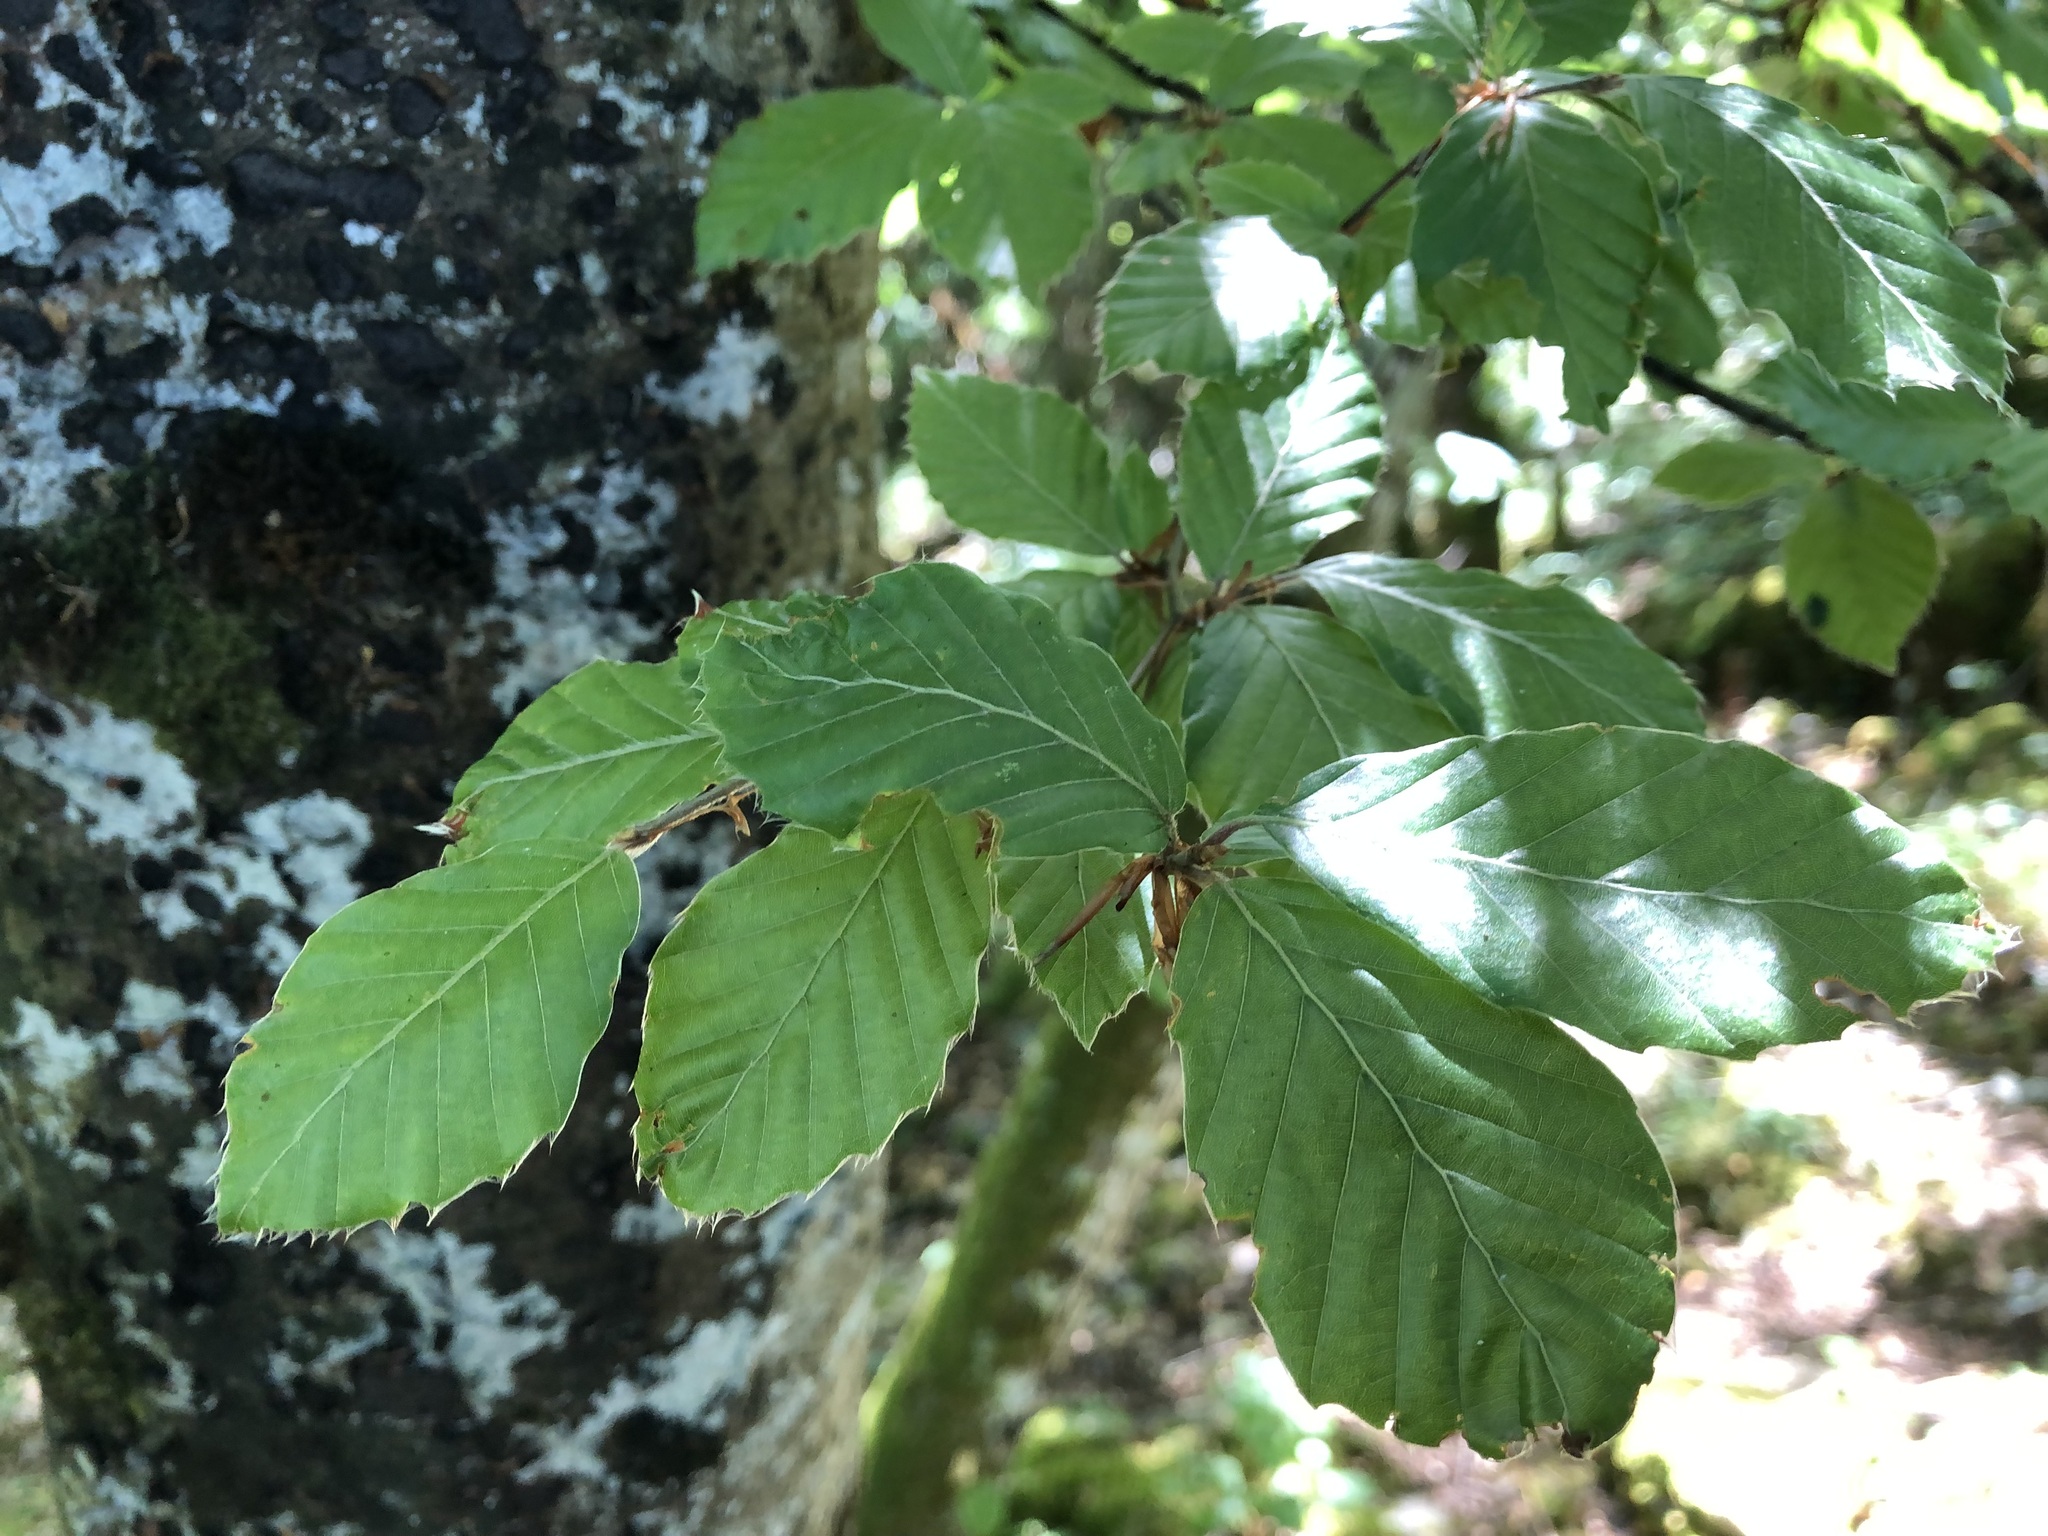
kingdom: Plantae
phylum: Tracheophyta
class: Magnoliopsida
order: Fagales
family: Fagaceae
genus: Fagus
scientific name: Fagus sylvatica
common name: Beech
